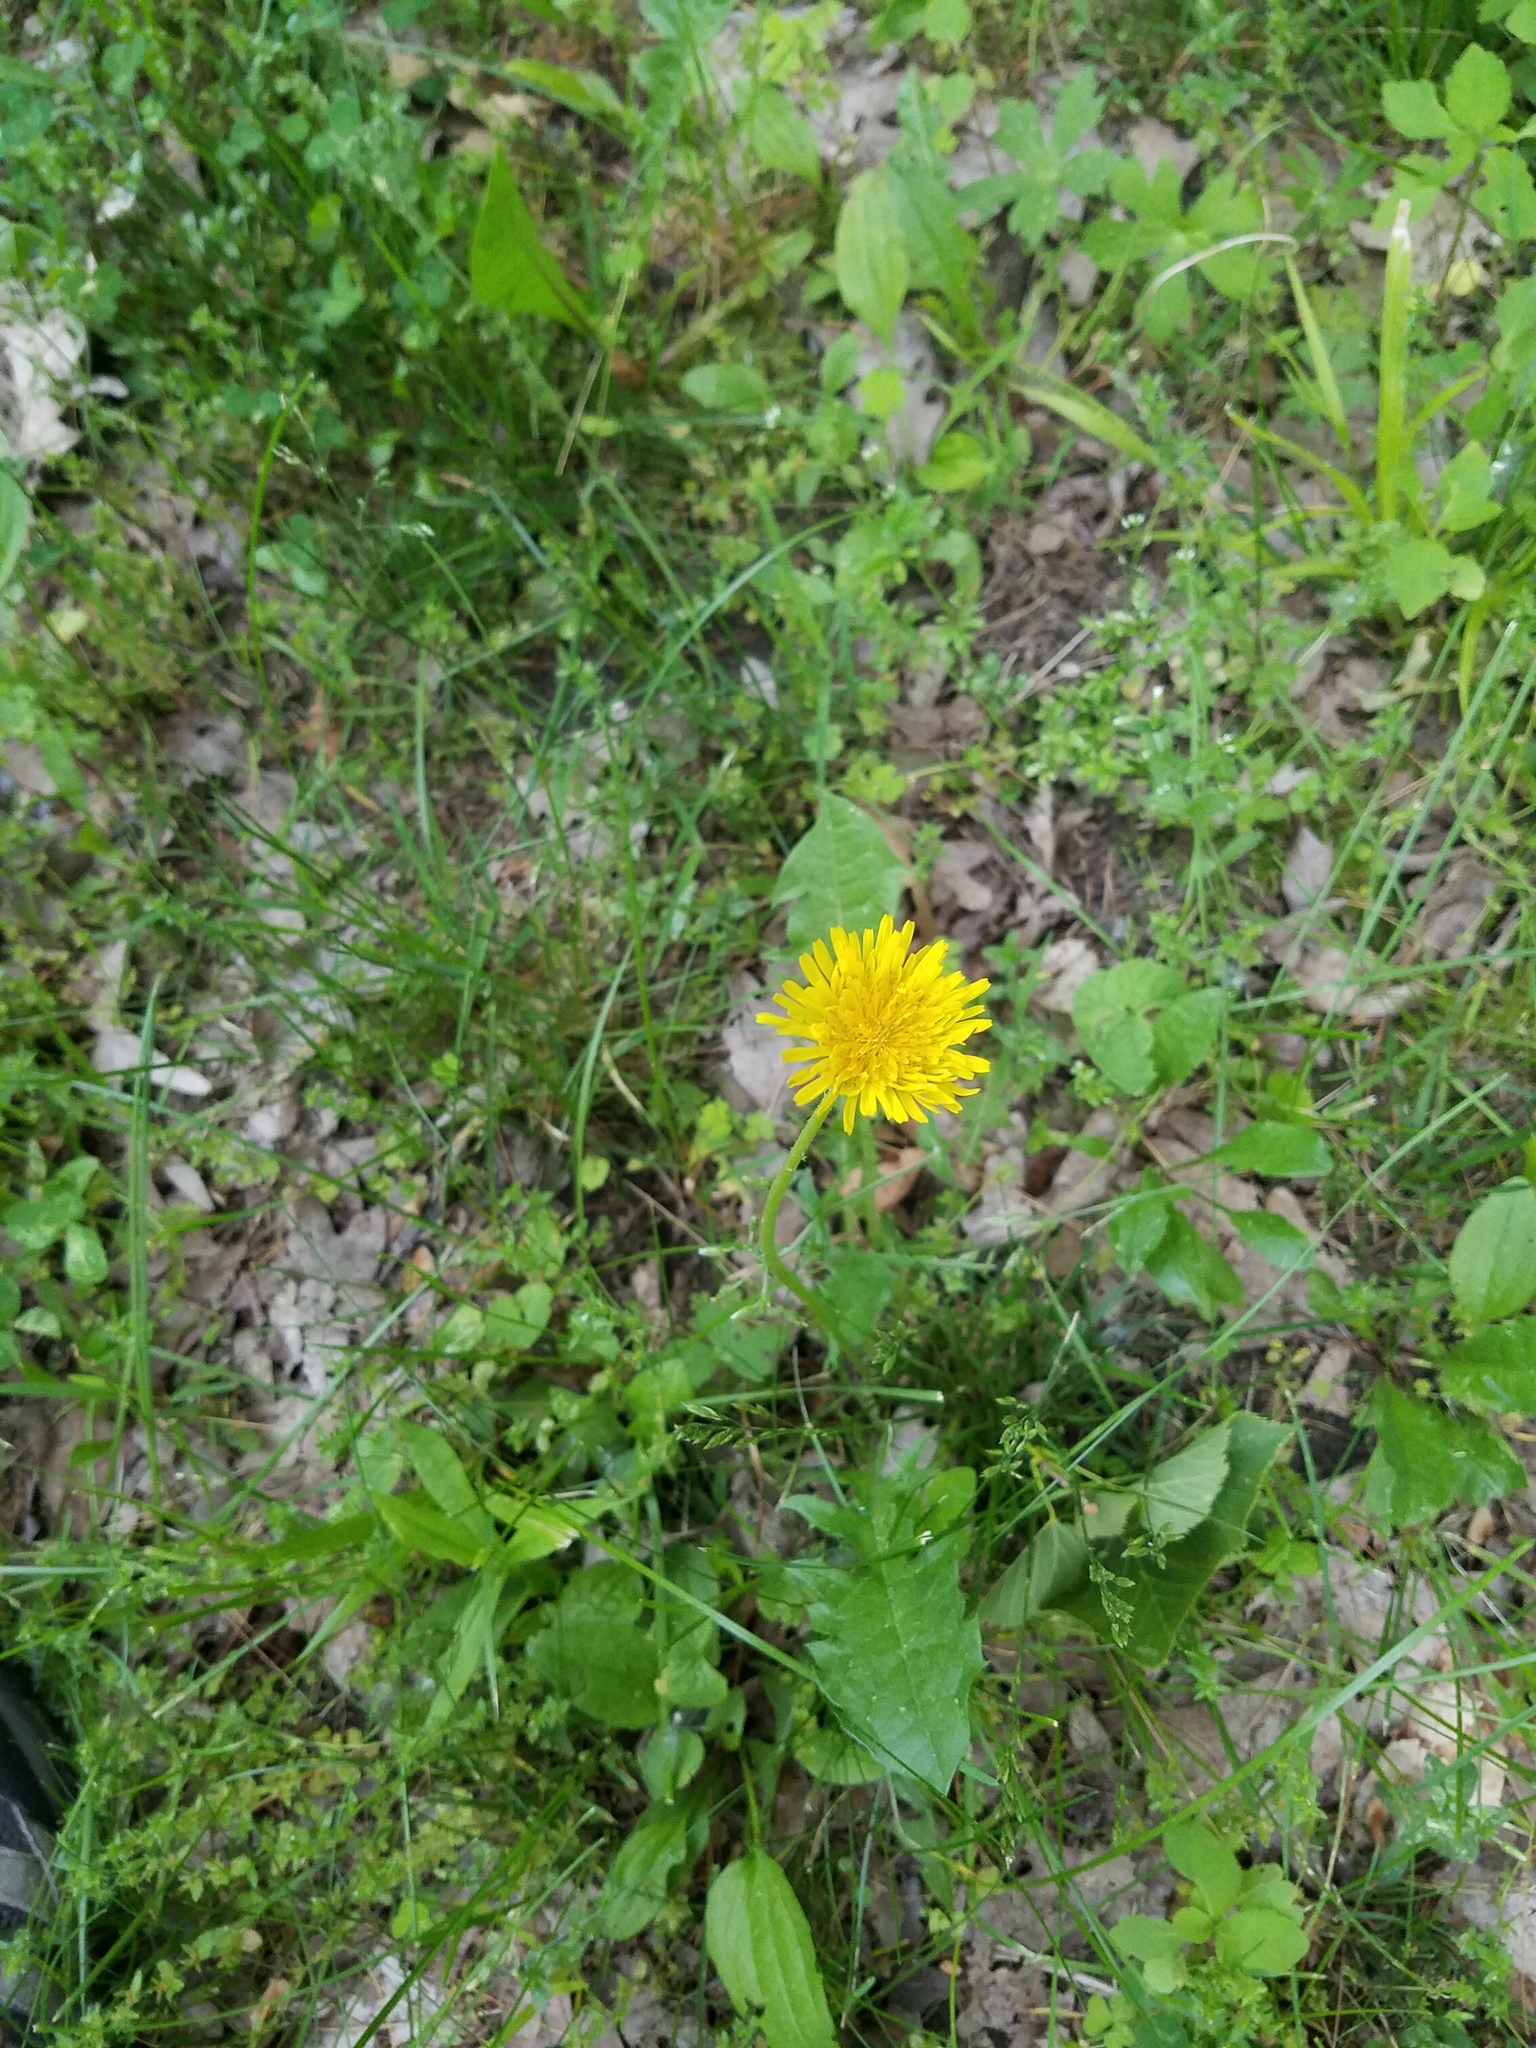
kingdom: Plantae
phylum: Tracheophyta
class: Magnoliopsida
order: Asterales
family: Asteraceae
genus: Taraxacum
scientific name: Taraxacum officinale
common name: Common dandelion
